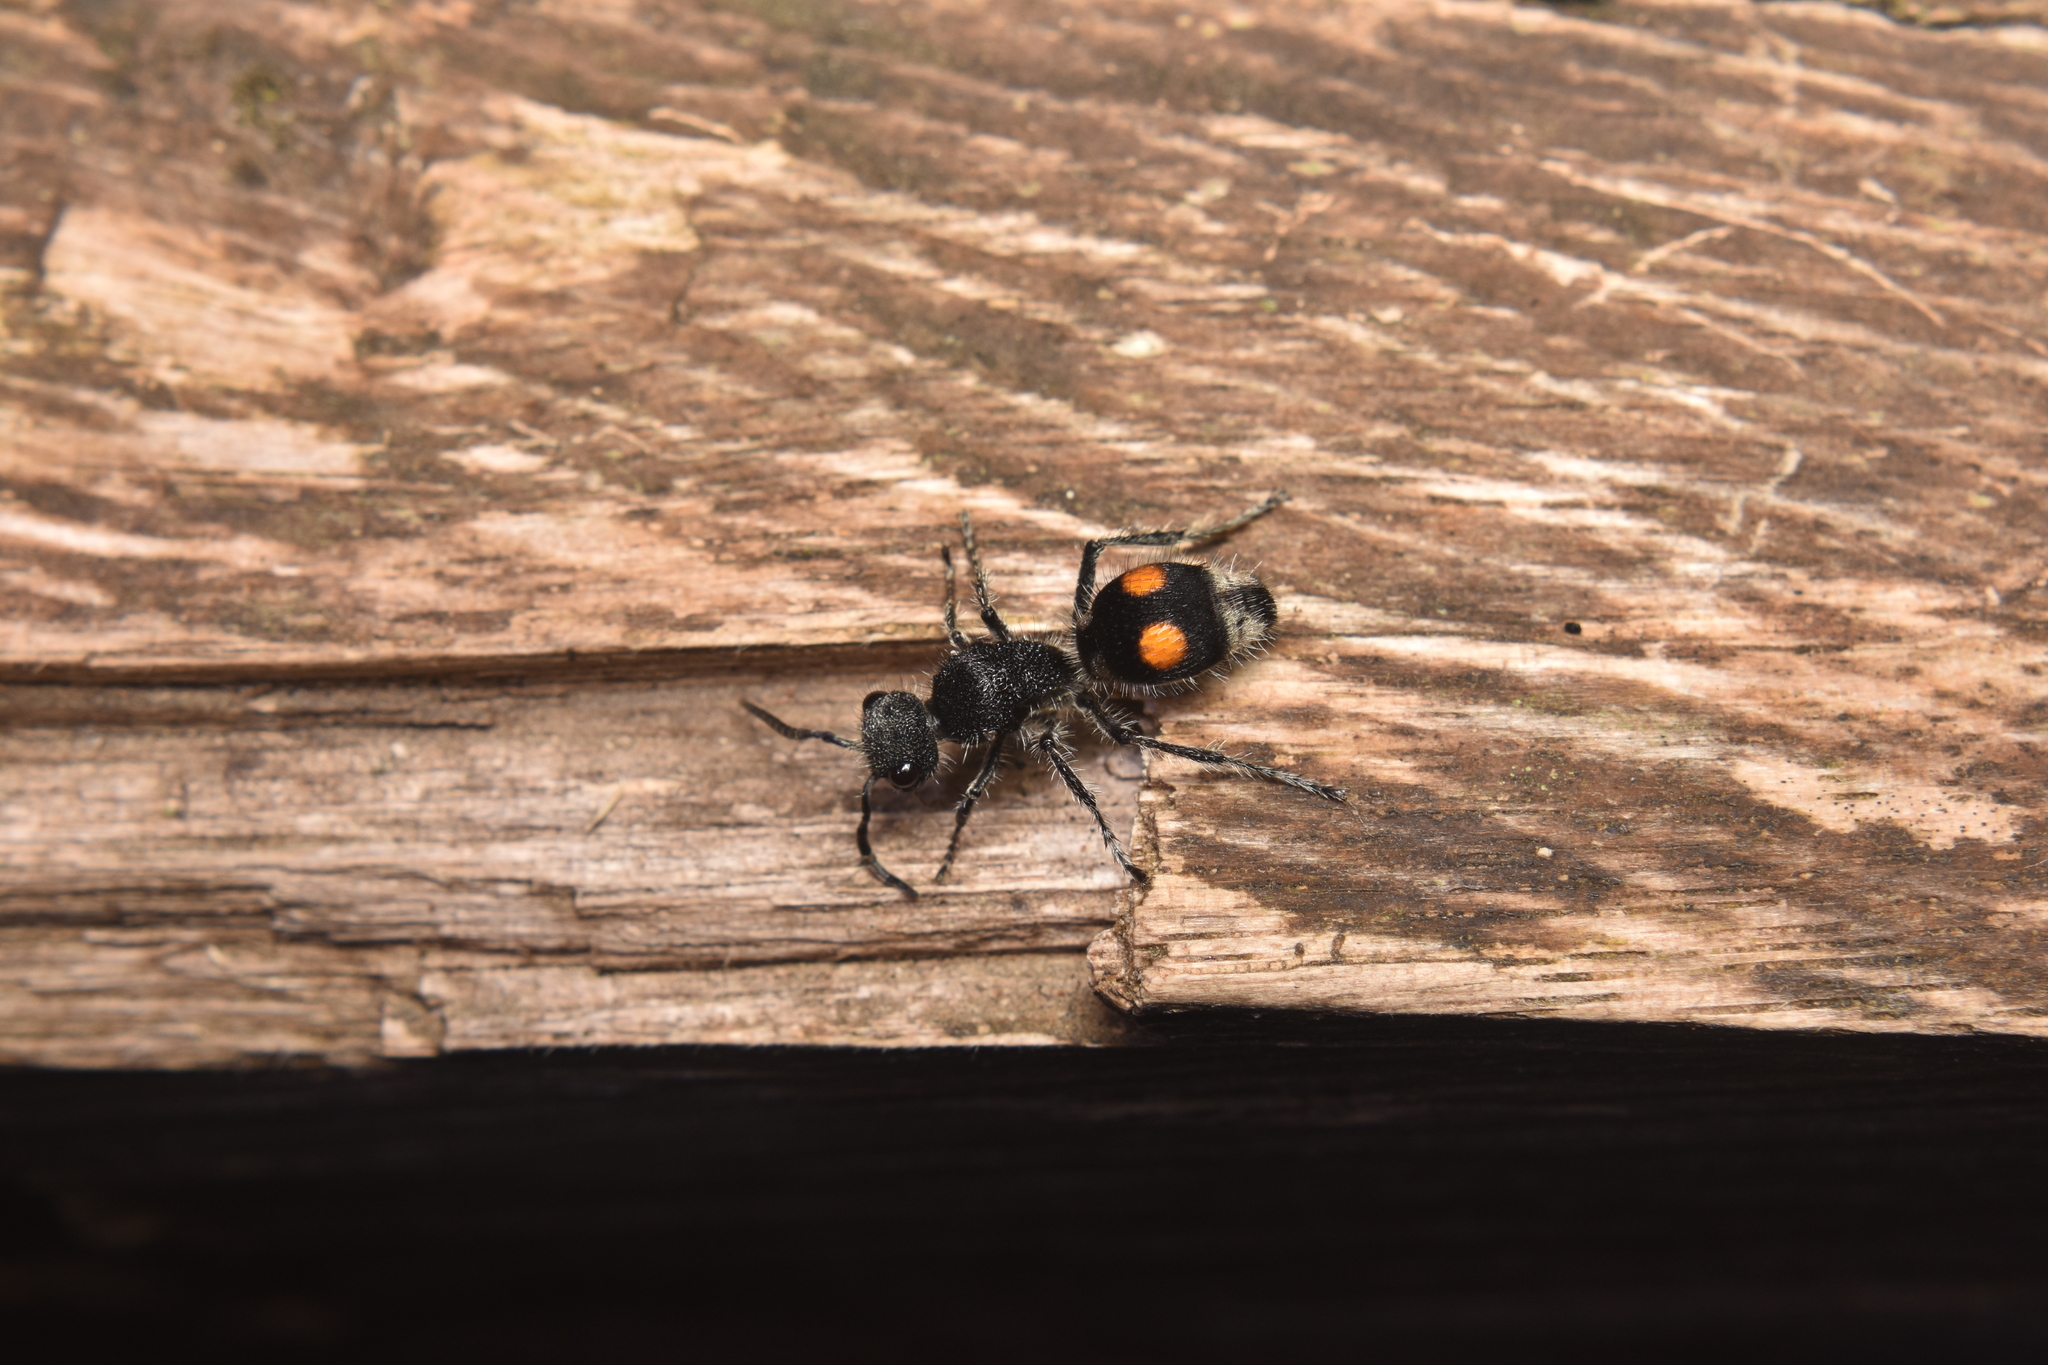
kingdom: Animalia
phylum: Arthropoda
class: Insecta
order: Hymenoptera
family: Mutillidae
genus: Hoplomutilla
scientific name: Hoplomutilla
